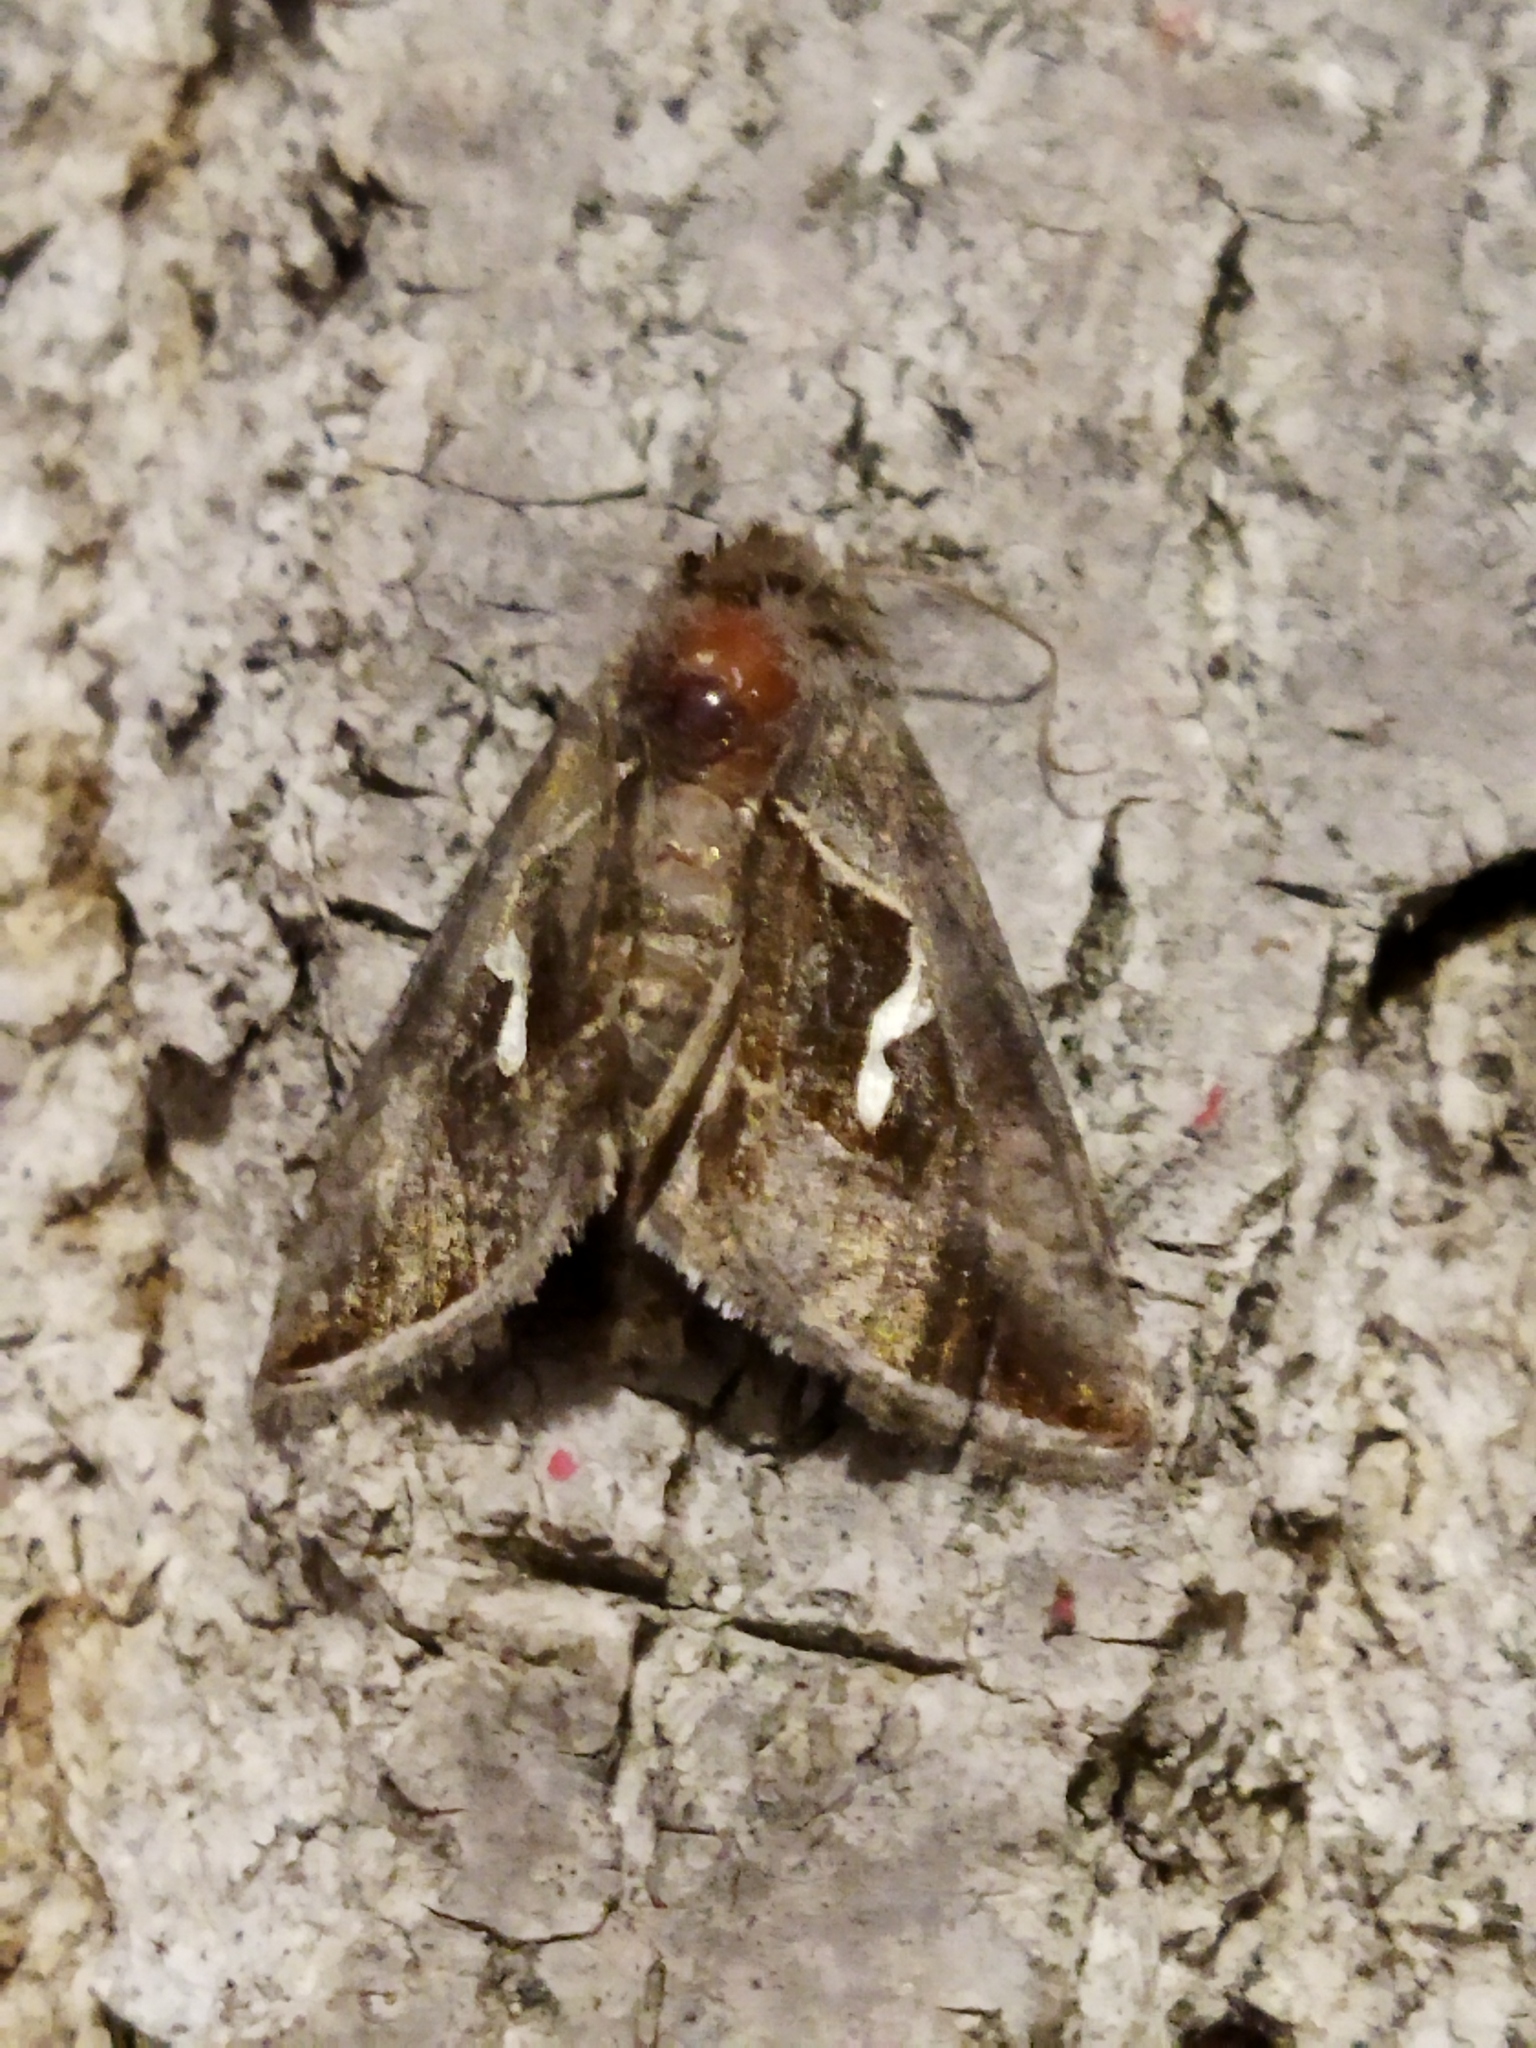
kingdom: Animalia
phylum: Arthropoda
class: Insecta
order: Lepidoptera
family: Noctuidae
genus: Macdunnoughia
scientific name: Macdunnoughia confusa
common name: Dewick's plusia
